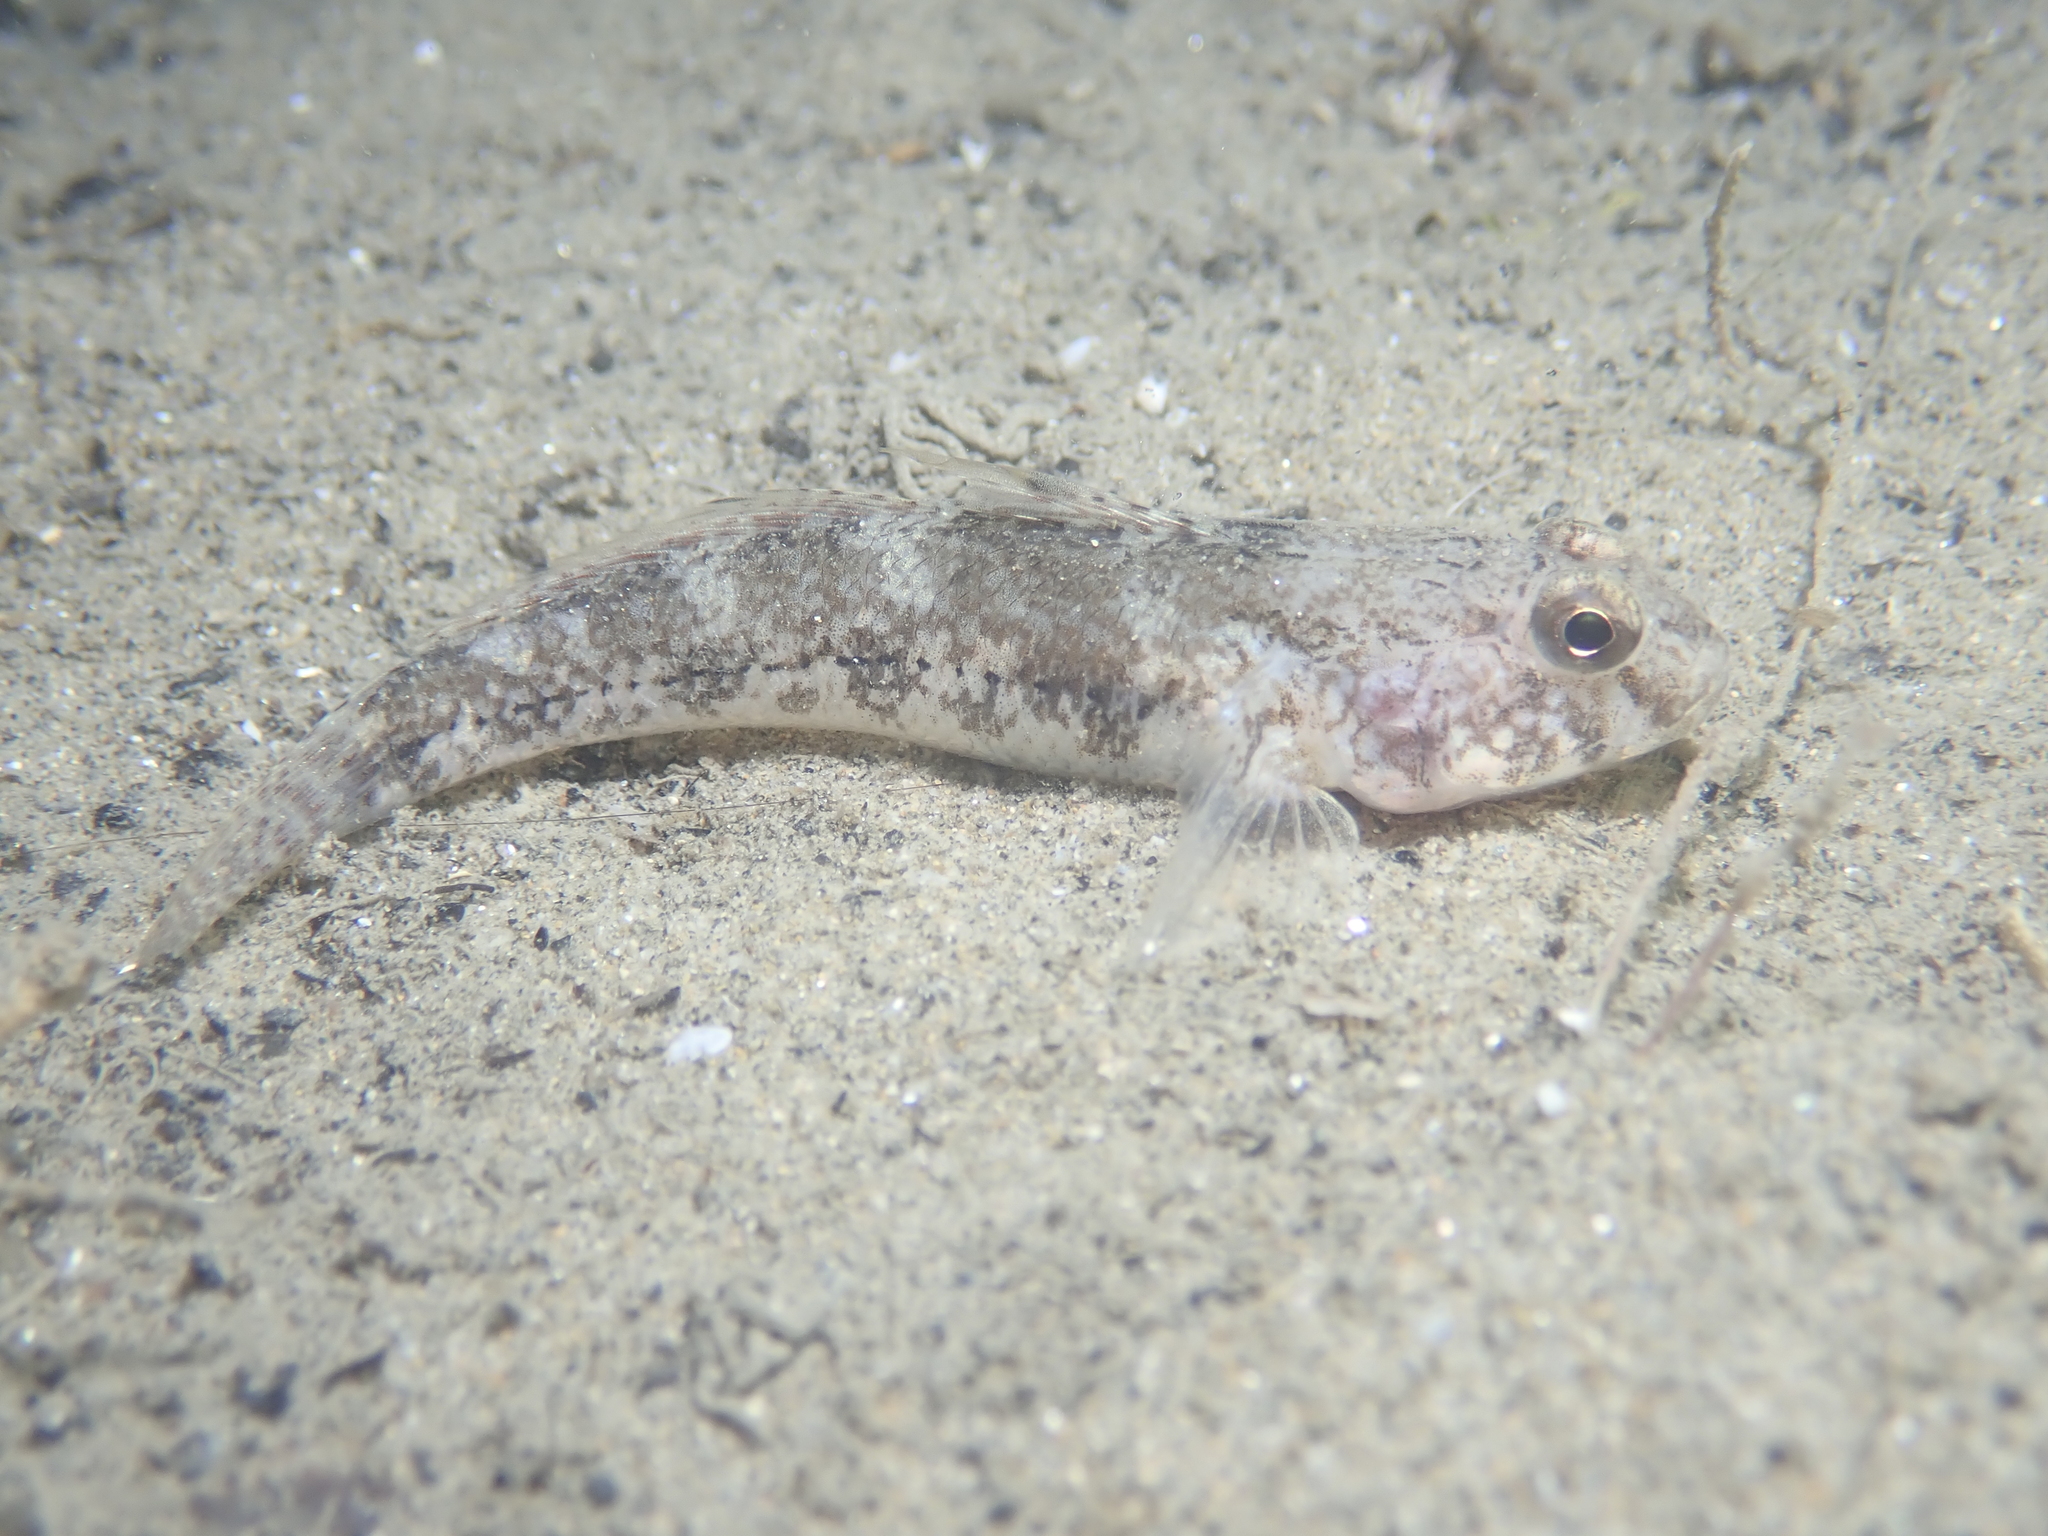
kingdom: Animalia
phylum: Chordata
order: Perciformes
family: Gobiidae
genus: Gobius
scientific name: Gobius niger
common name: Black goby
